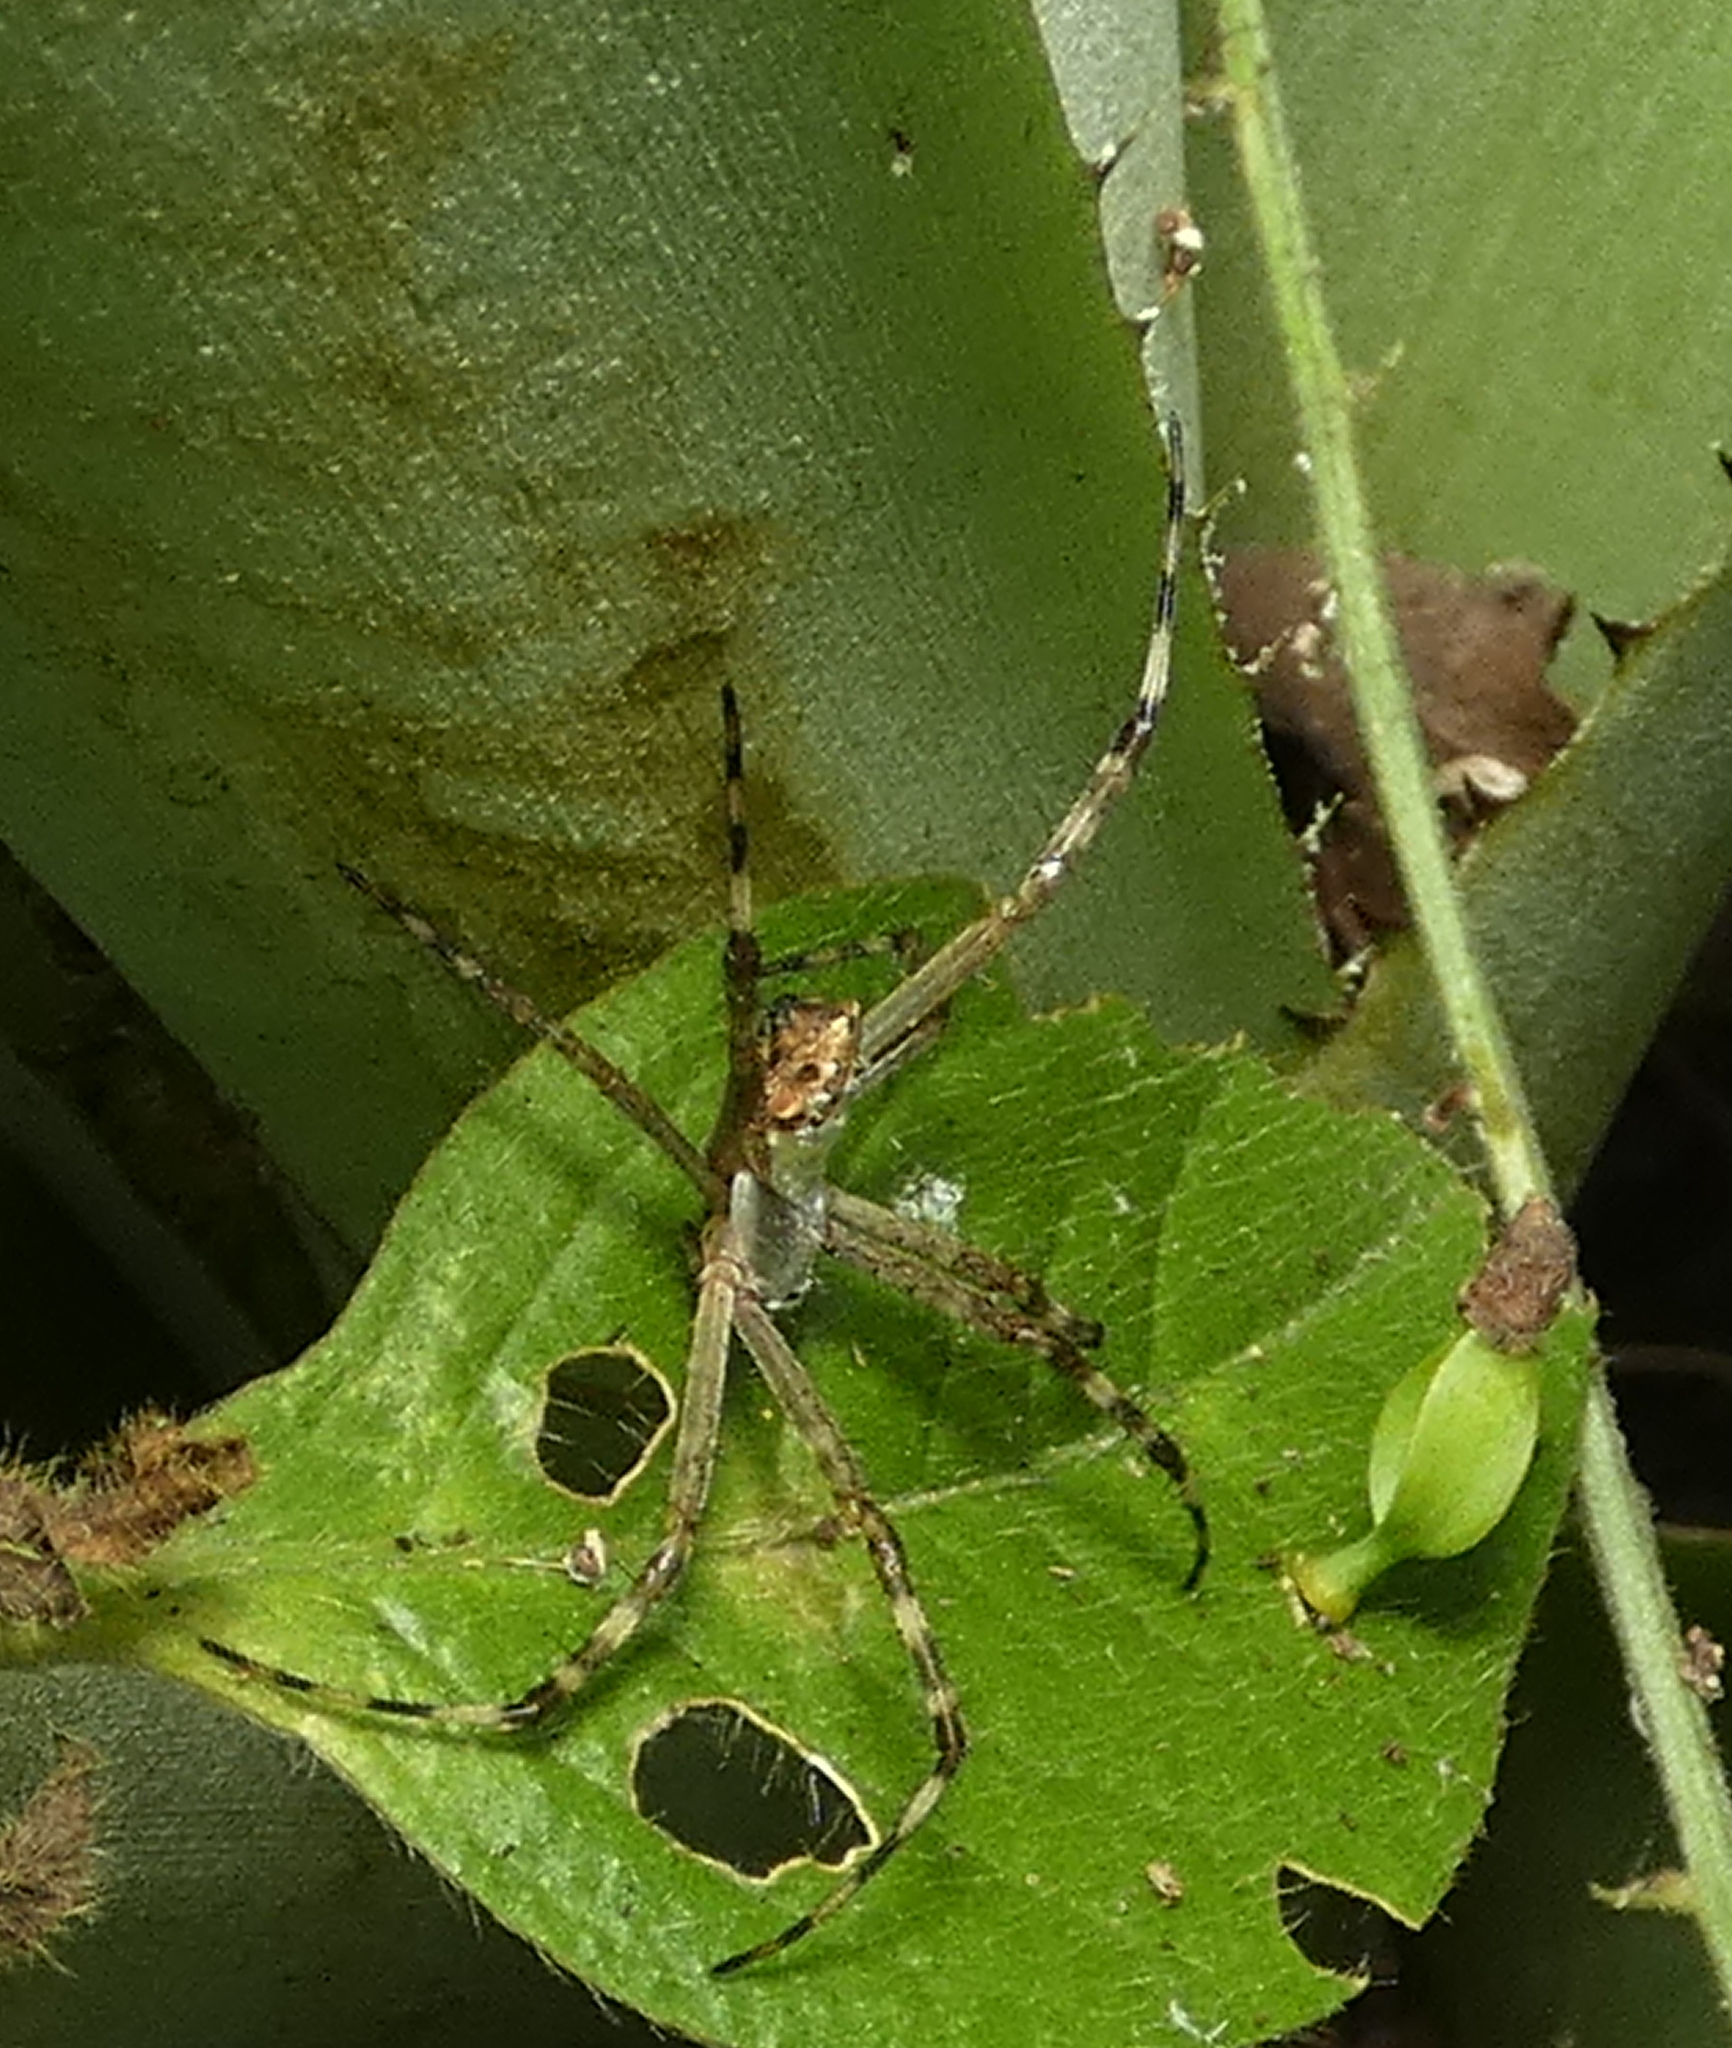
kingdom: Animalia
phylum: Arthropoda
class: Arachnida
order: Araneae
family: Araneidae
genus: Argiope
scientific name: Argiope argentata
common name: Orb weavers
